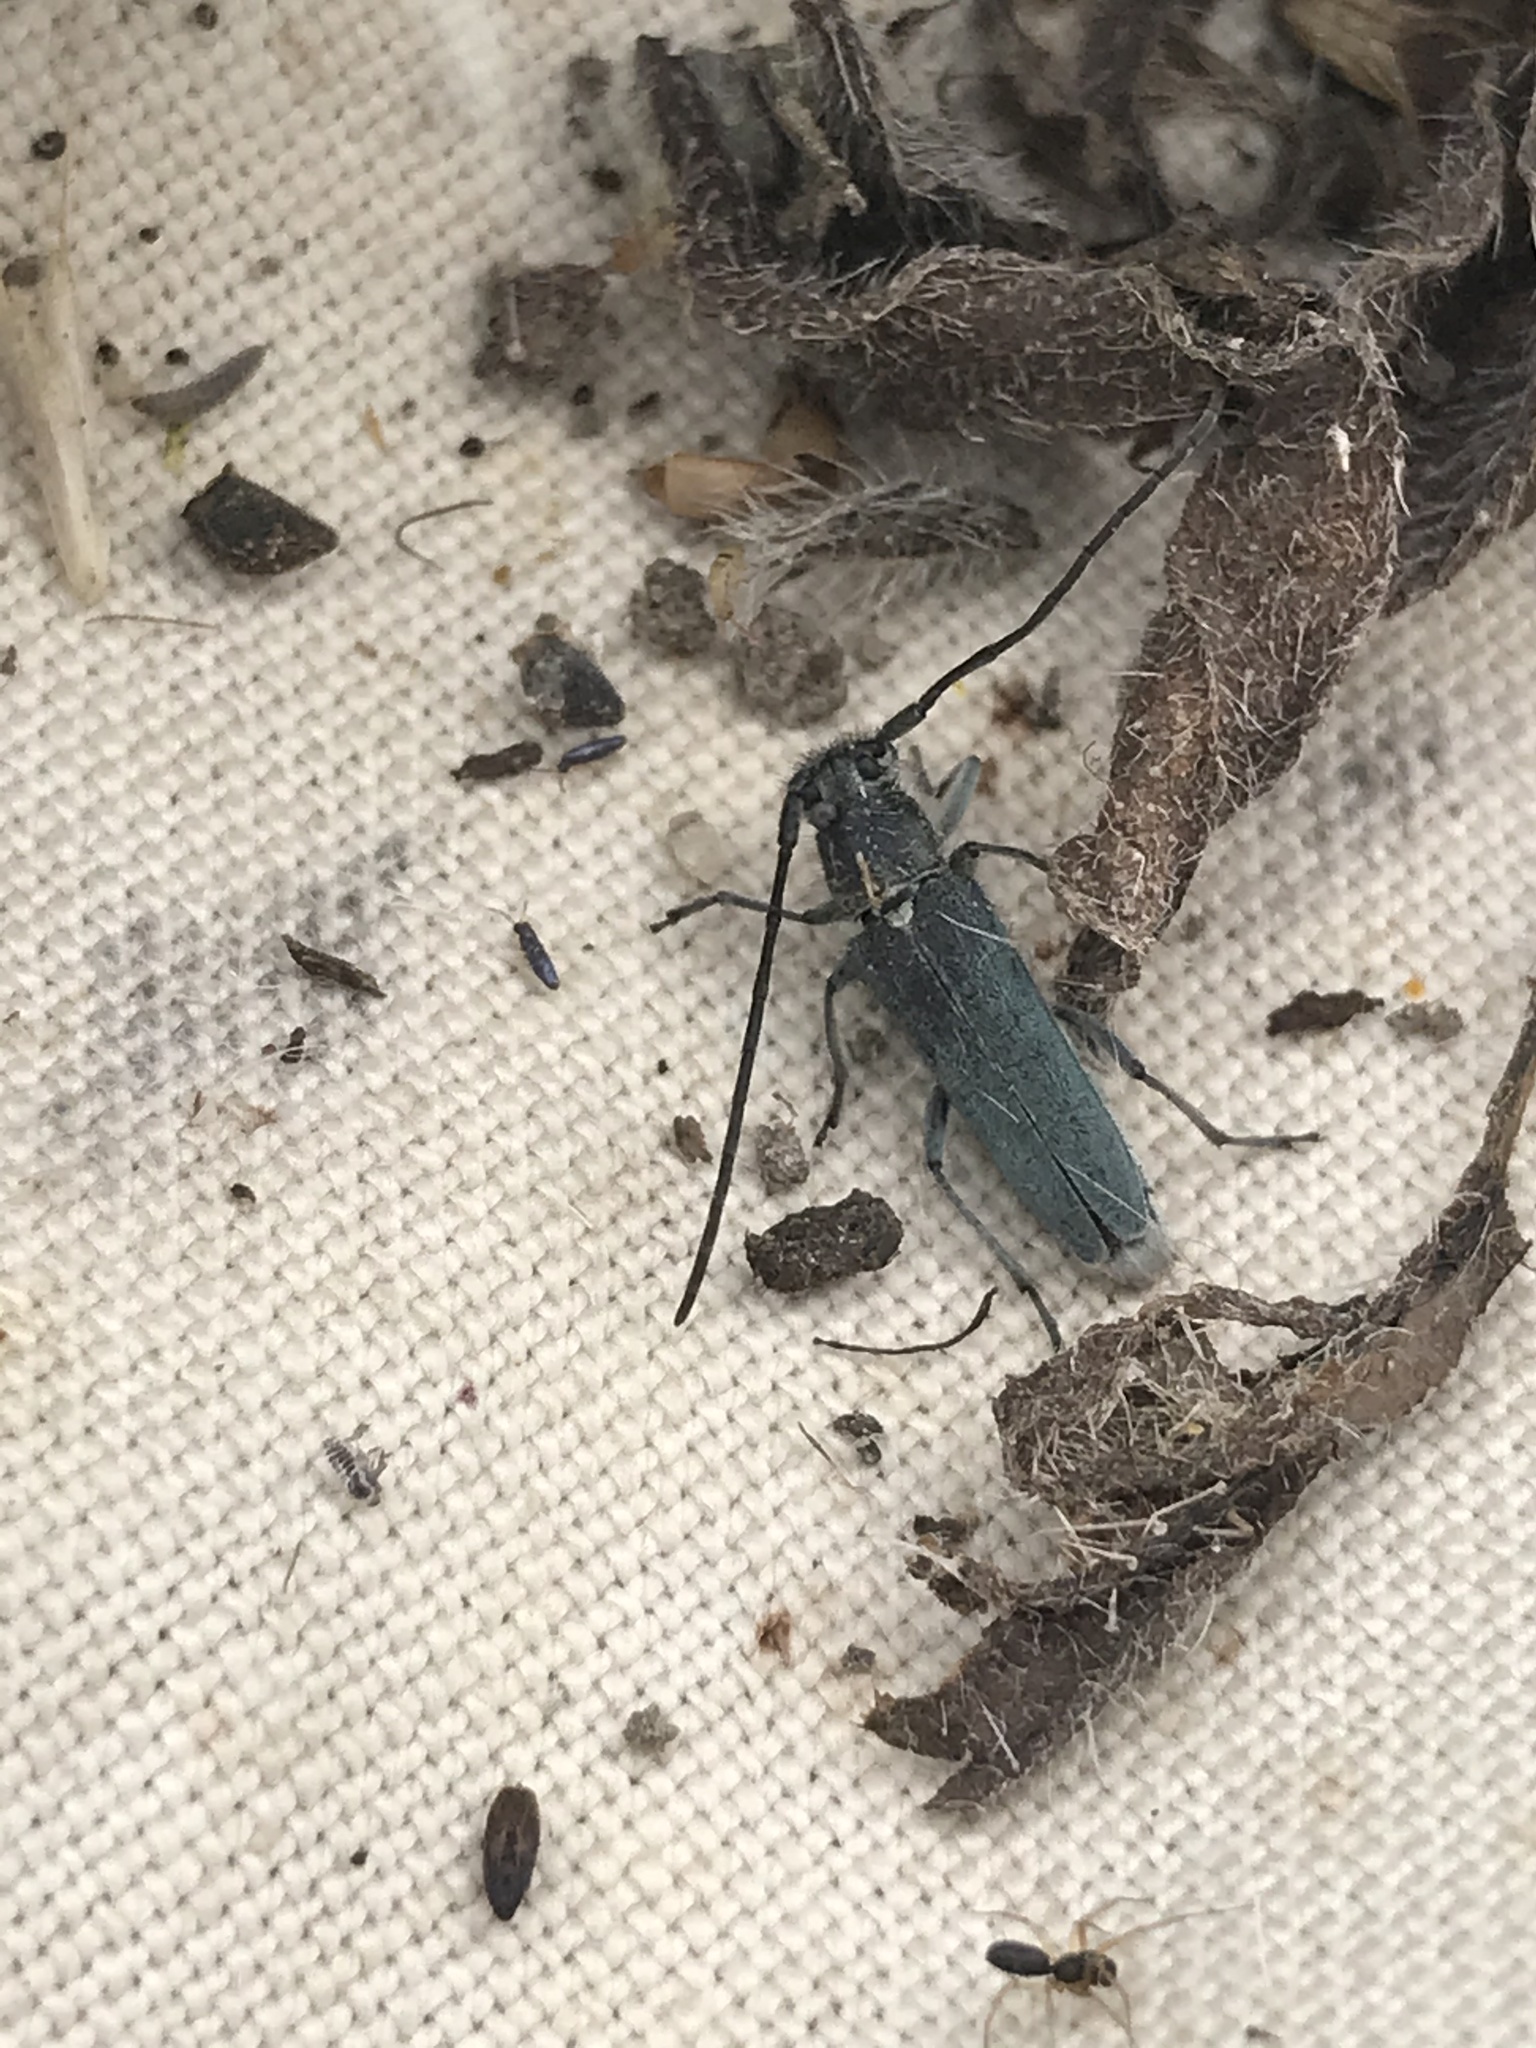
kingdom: Animalia
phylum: Arthropoda
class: Insecta
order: Coleoptera
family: Cerambycidae
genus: Phytoecia
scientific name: Phytoecia coerulescens
